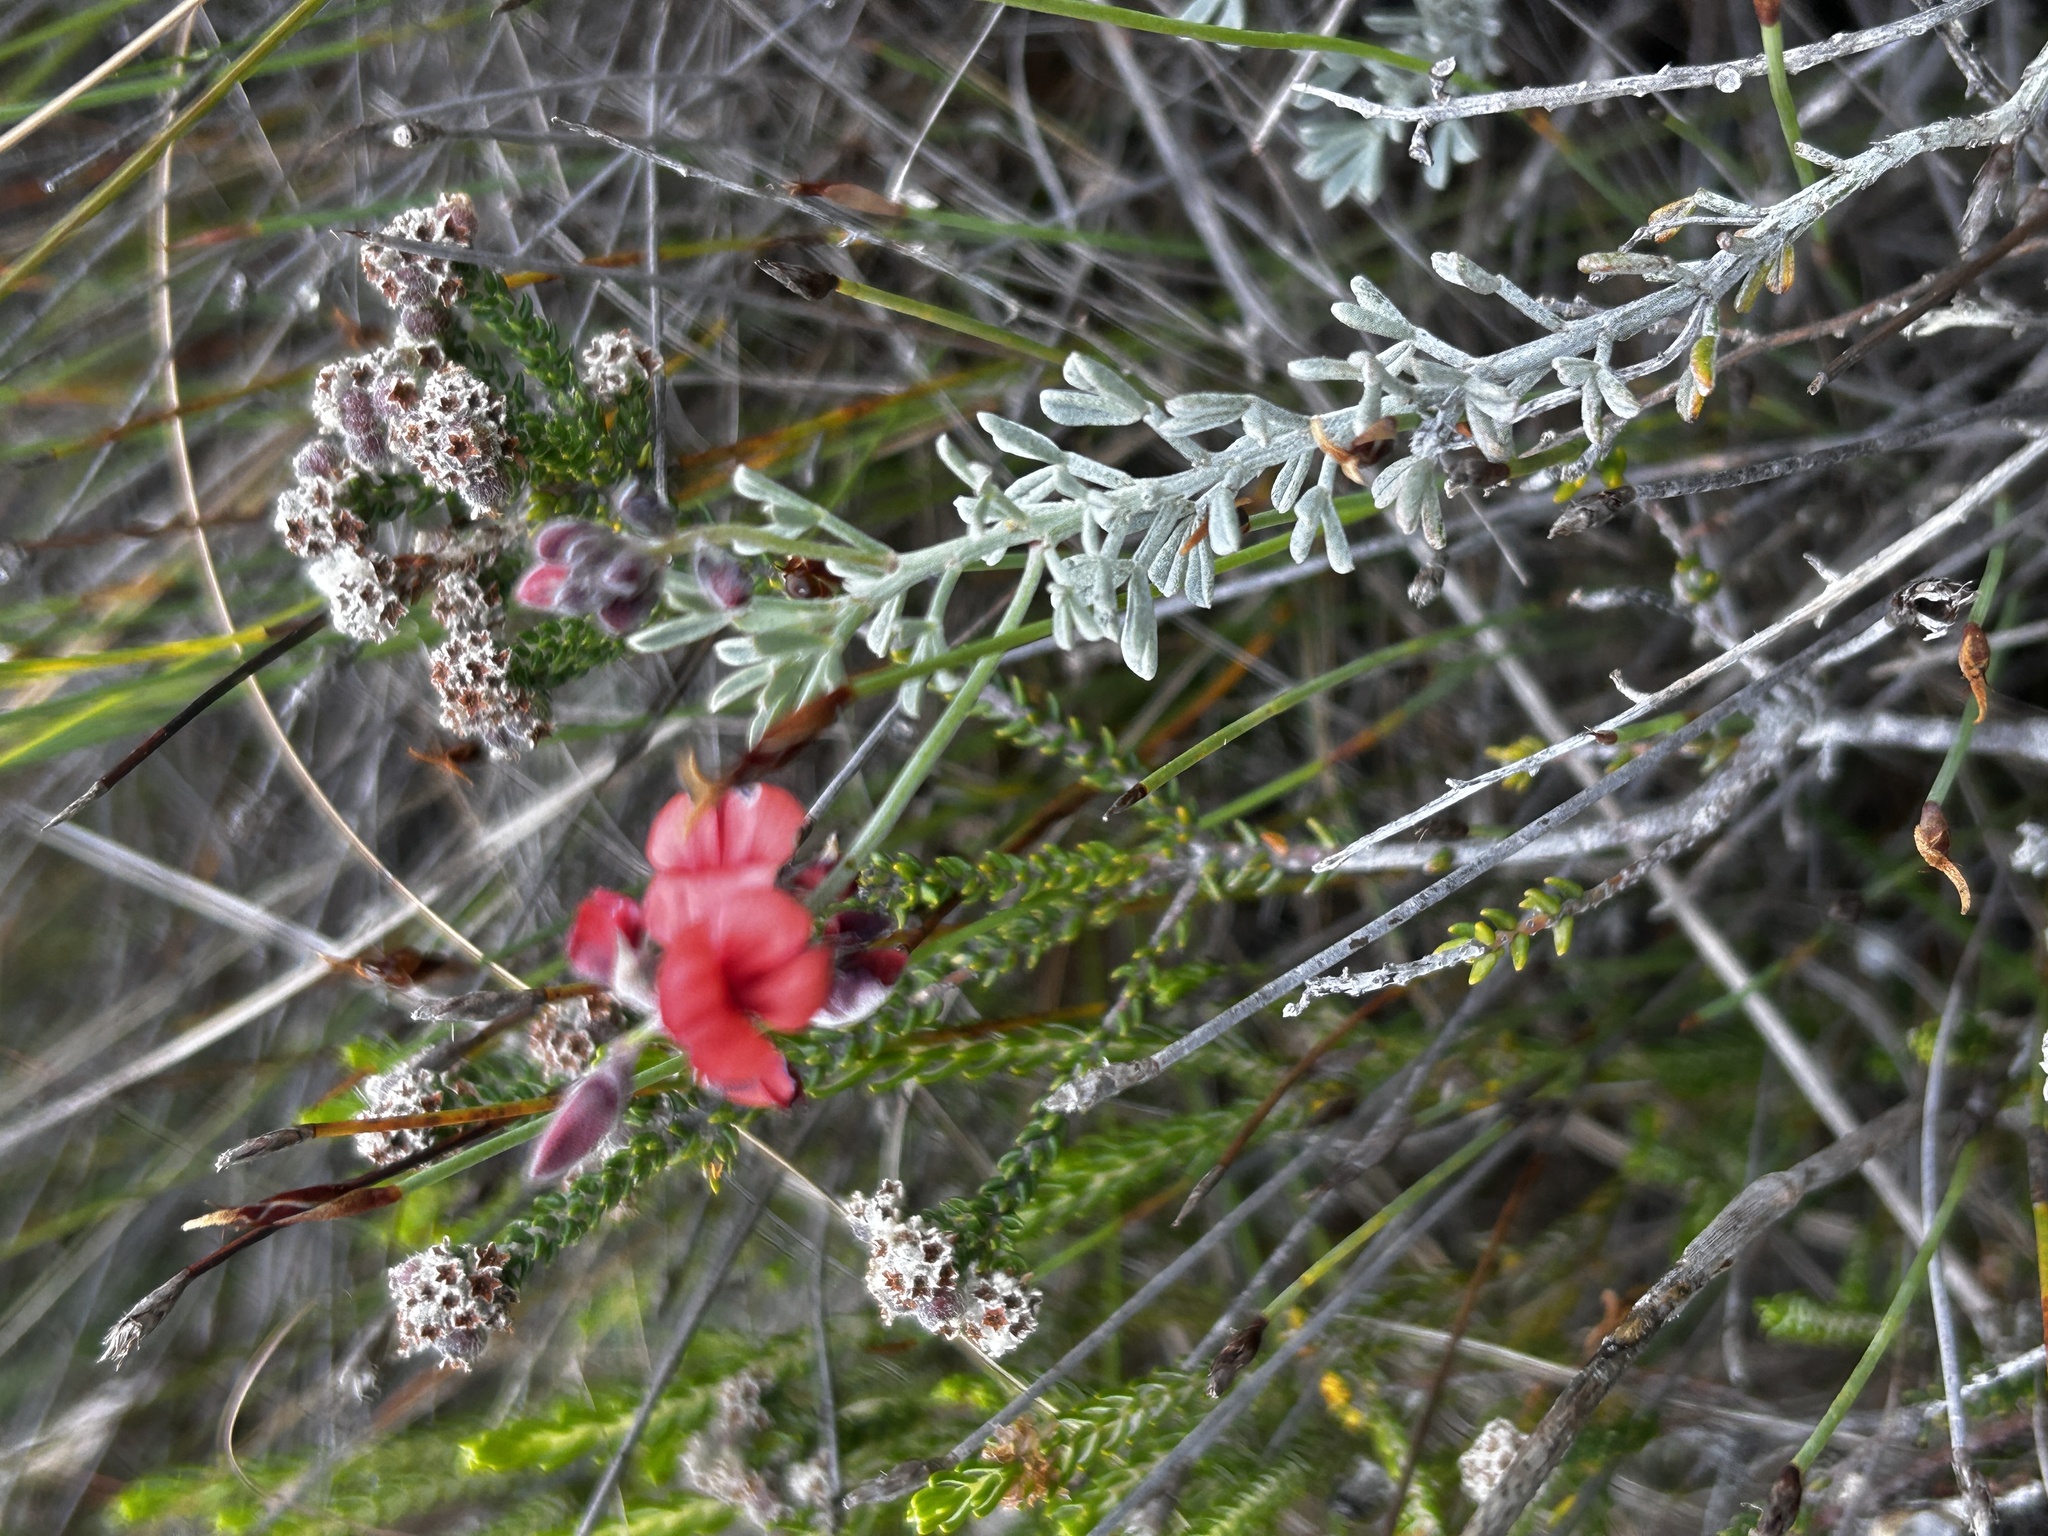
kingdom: Plantae
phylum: Tracheophyta
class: Magnoliopsida
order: Fabales
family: Fabaceae
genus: Indigofera
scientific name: Indigofera heterophylla
